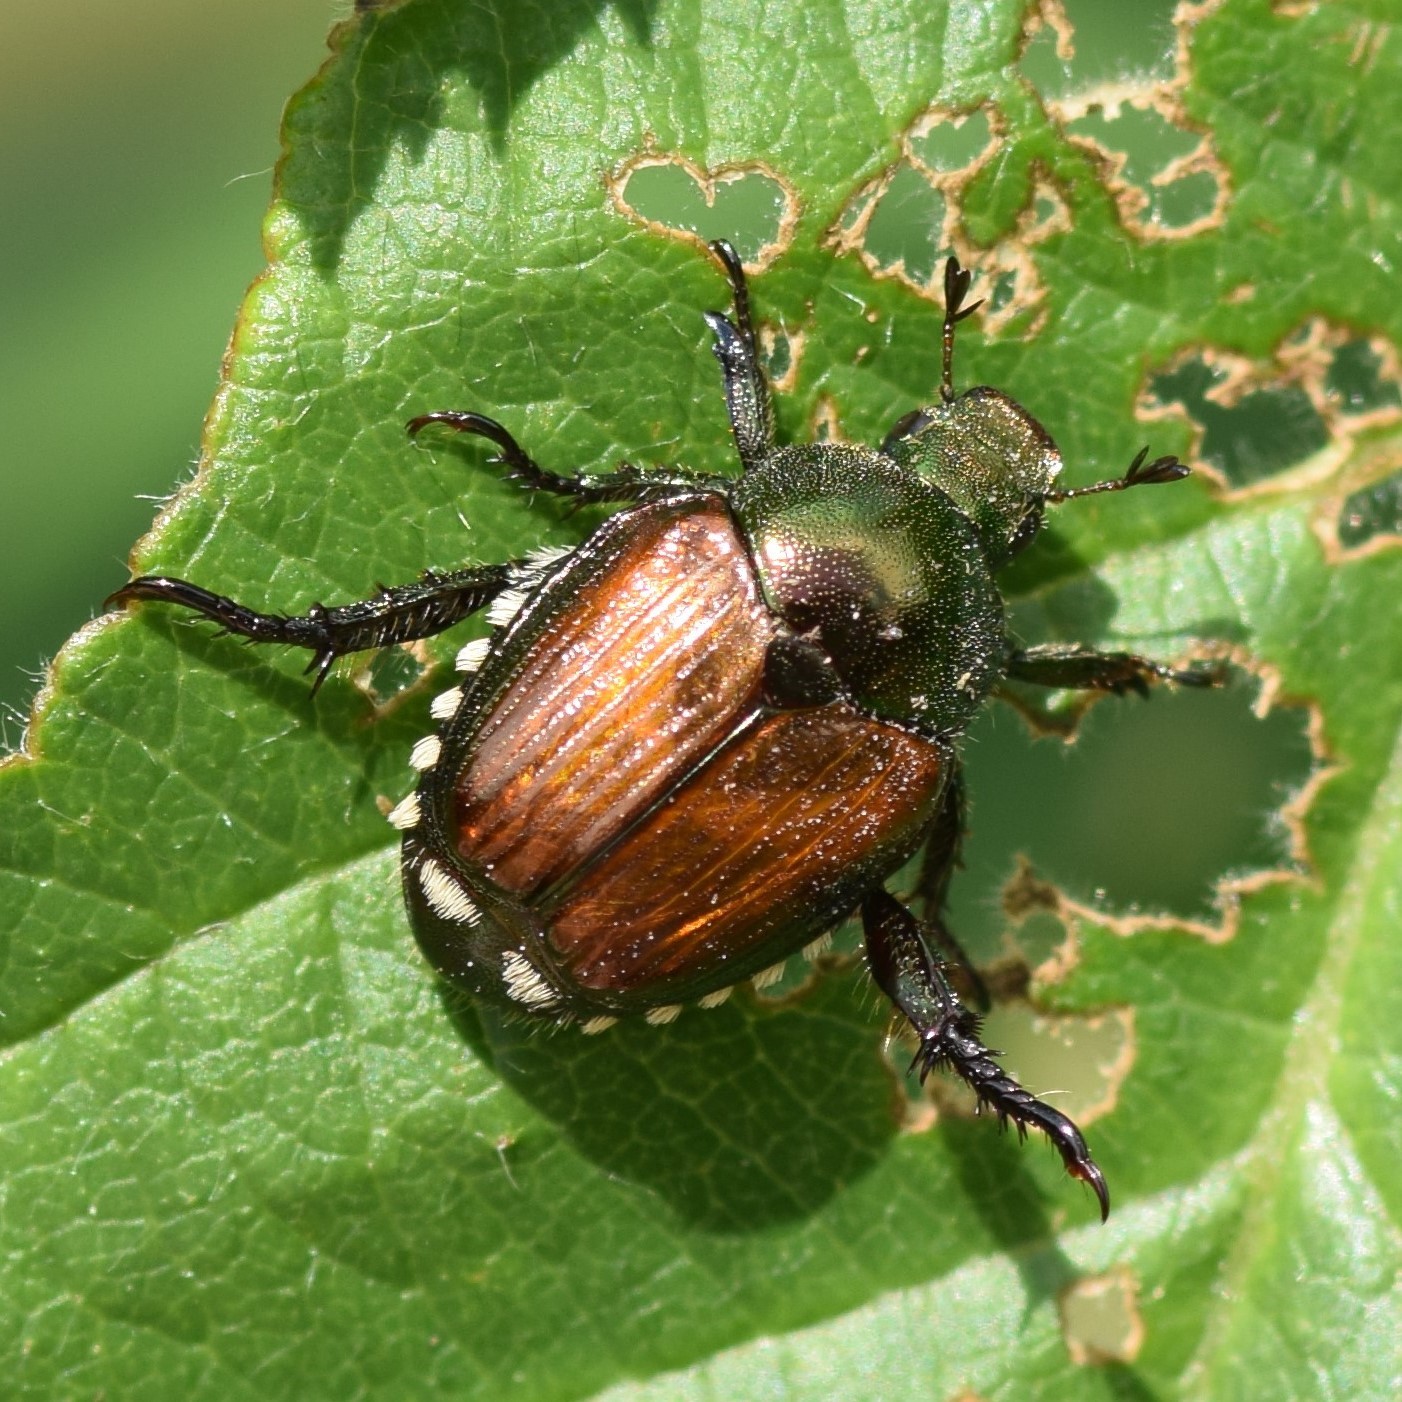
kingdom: Animalia
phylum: Arthropoda
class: Insecta
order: Coleoptera
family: Scarabaeidae
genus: Popillia
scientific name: Popillia japonica
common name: Japanese beetle
